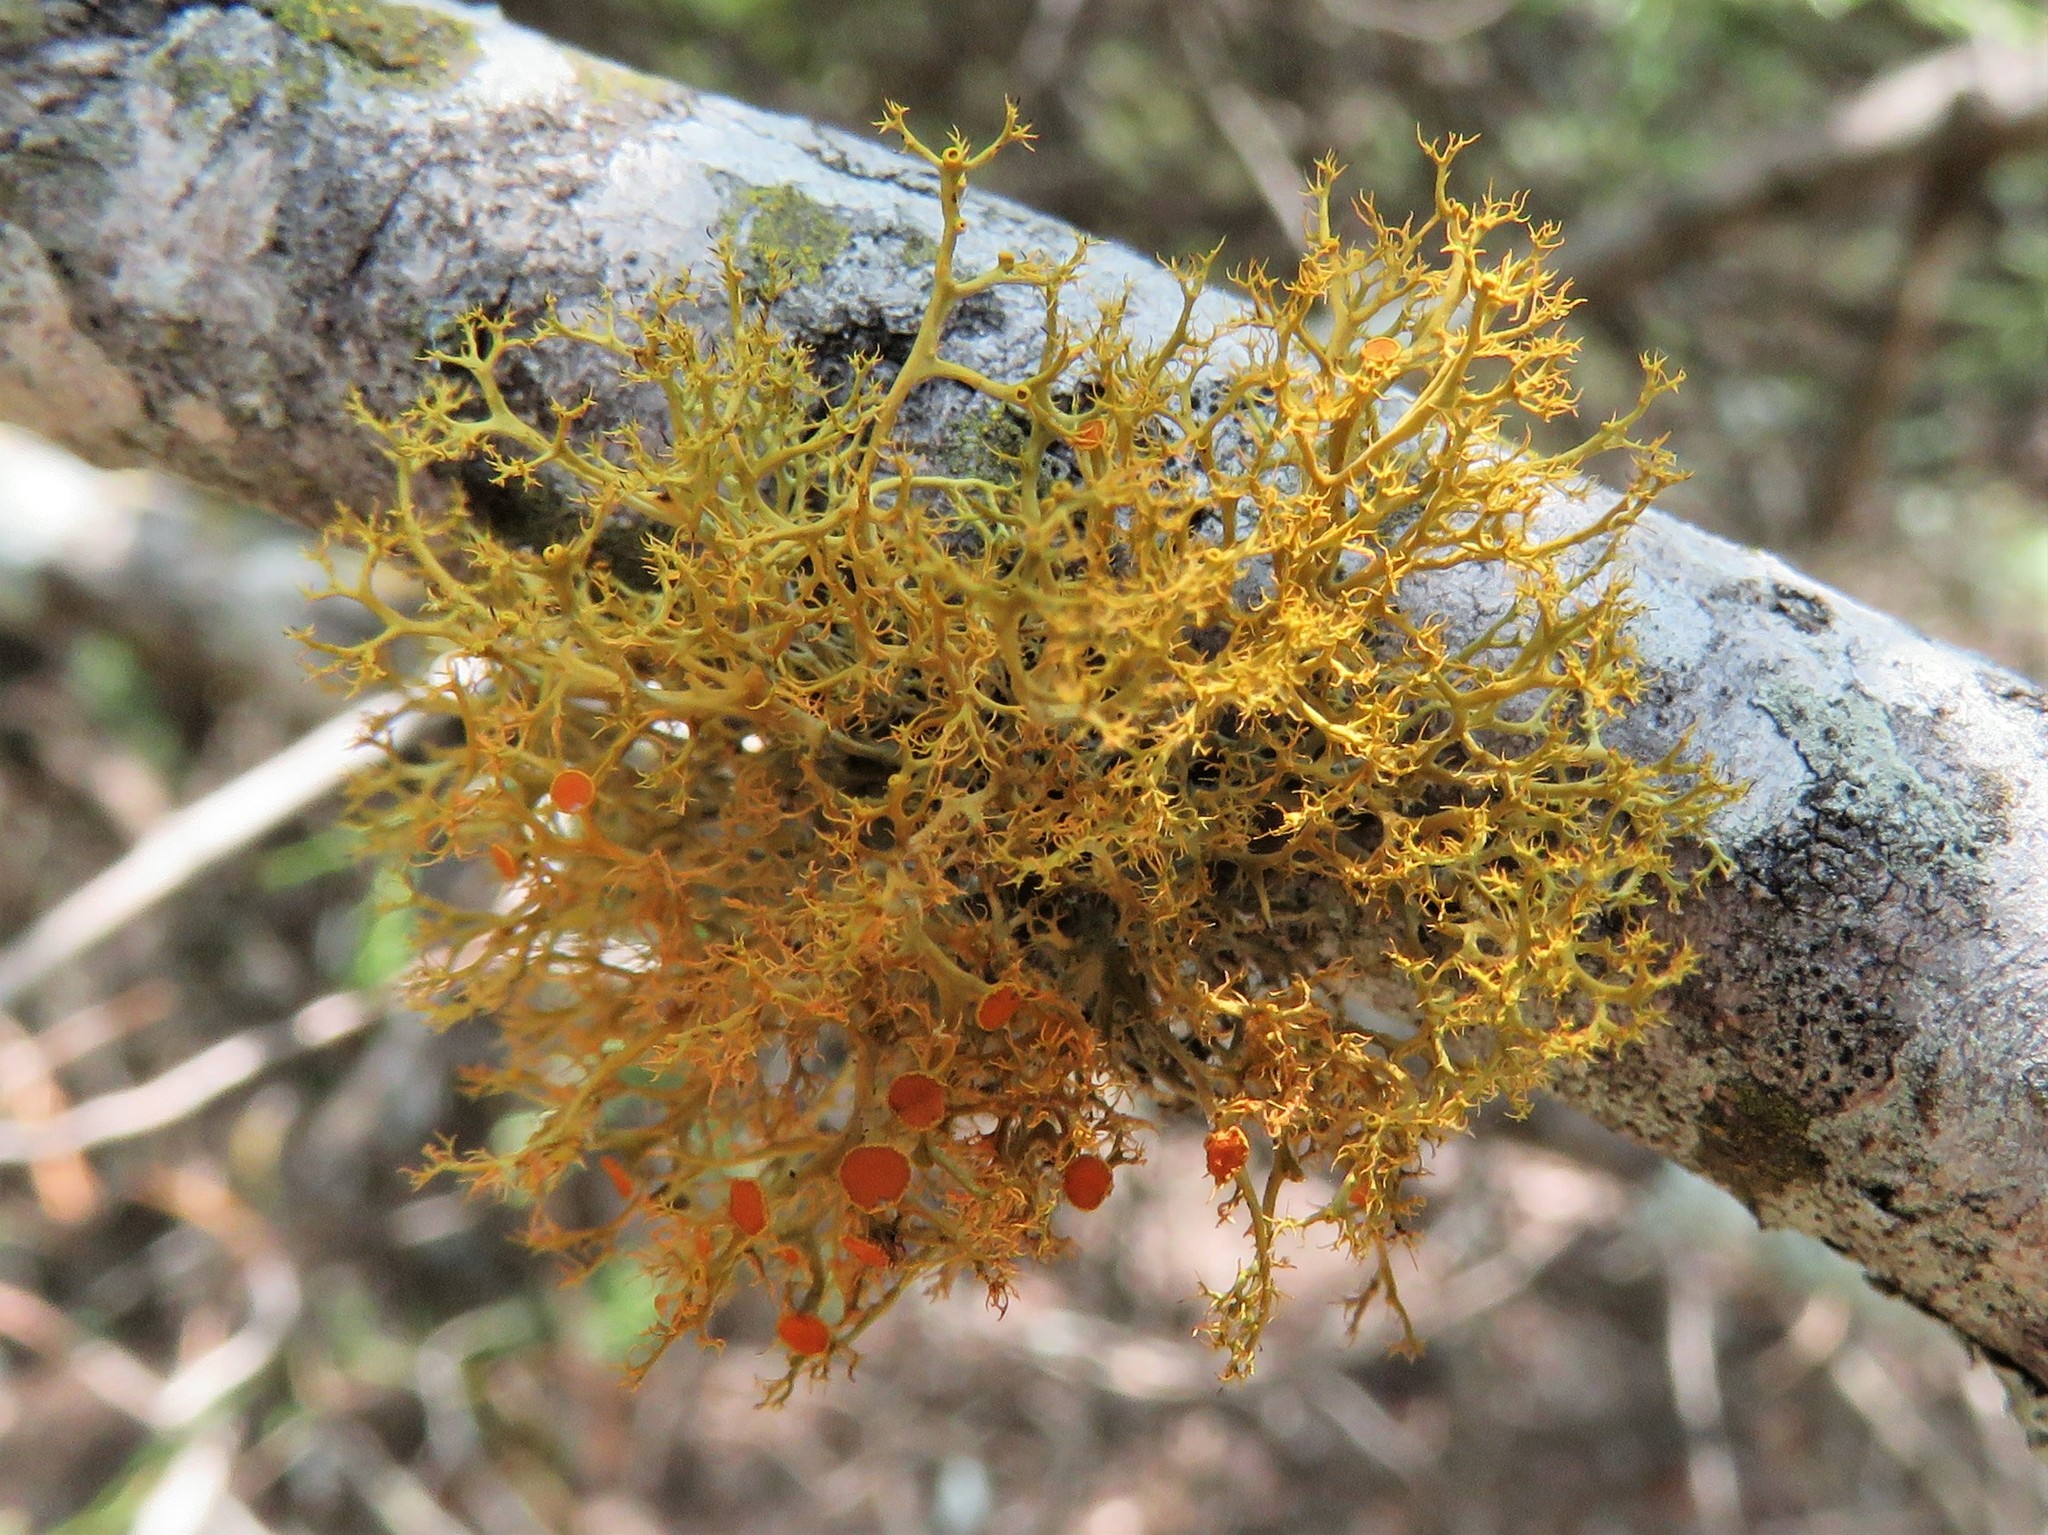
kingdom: Fungi
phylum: Ascomycota
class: Lecanoromycetes
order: Teloschistales
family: Teloschistaceae
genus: Teloschistes
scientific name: Teloschistes exilis
